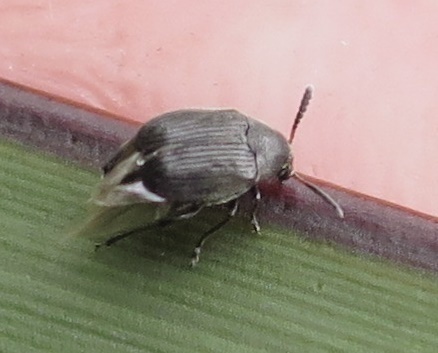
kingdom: Animalia
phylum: Arthropoda
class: Insecta
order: Coleoptera
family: Chrysomelidae
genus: Bruchidius
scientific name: Bruchidius villosus
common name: Scotch broom bruchid
